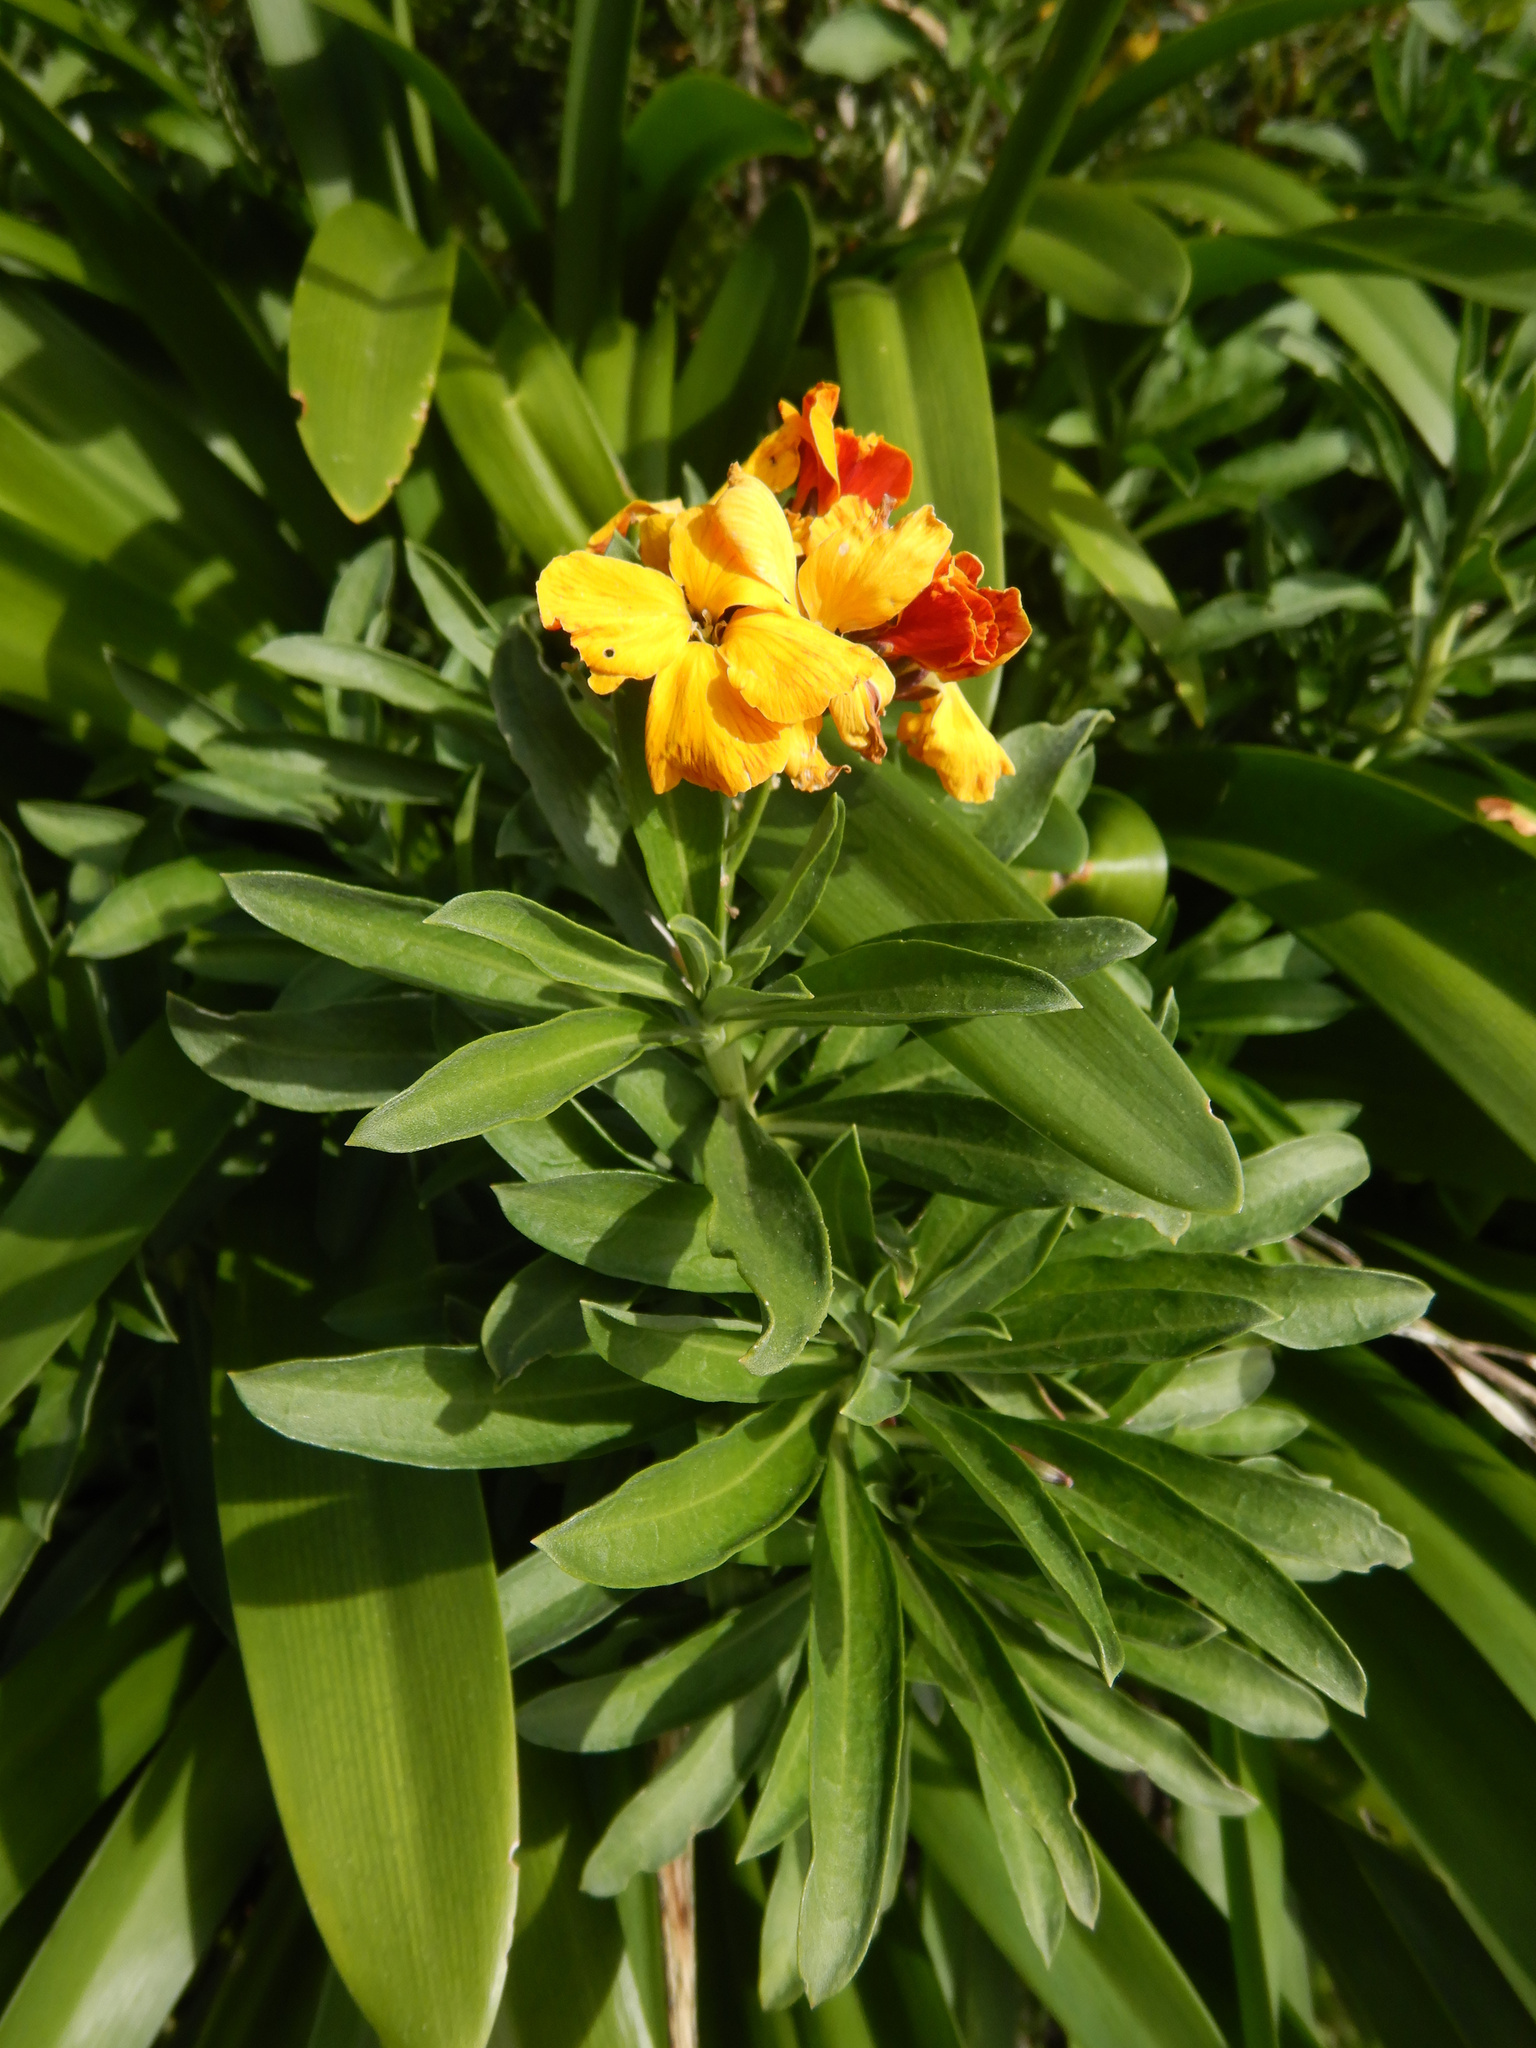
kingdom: Plantae
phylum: Tracheophyta
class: Magnoliopsida
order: Brassicales
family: Brassicaceae
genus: Erysimum
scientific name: Erysimum cheiri
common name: Wallflower
